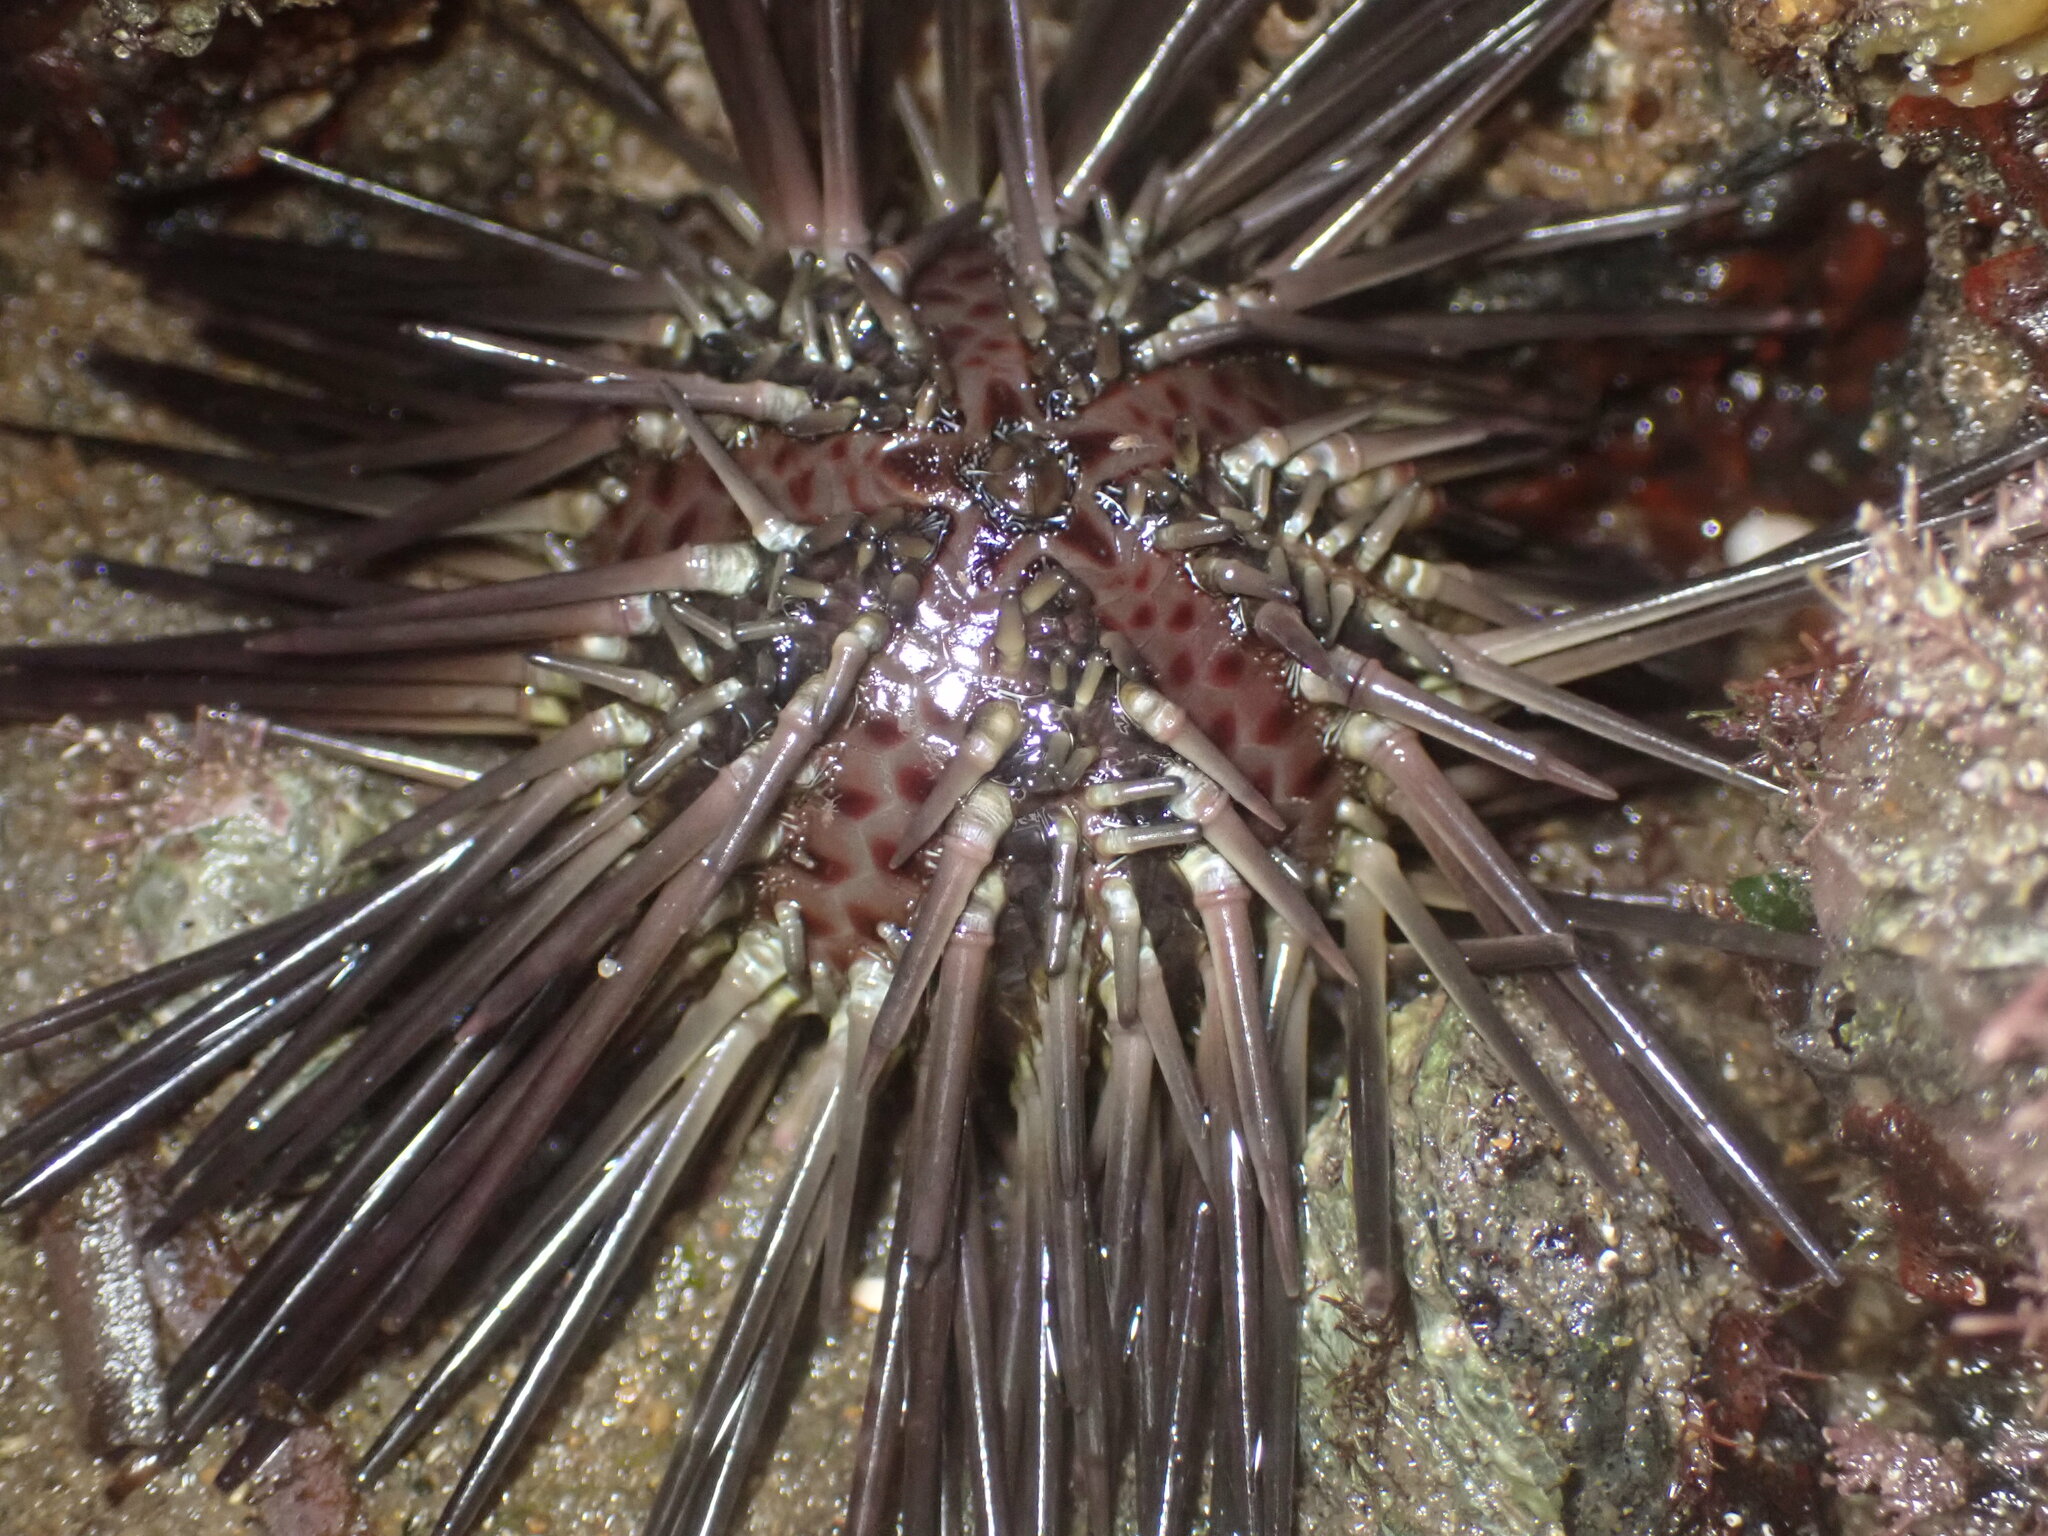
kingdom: Animalia
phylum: Echinodermata
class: Echinoidea
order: Arbacioida
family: Arbaciidae
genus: Arbacia
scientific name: Arbacia stellata
